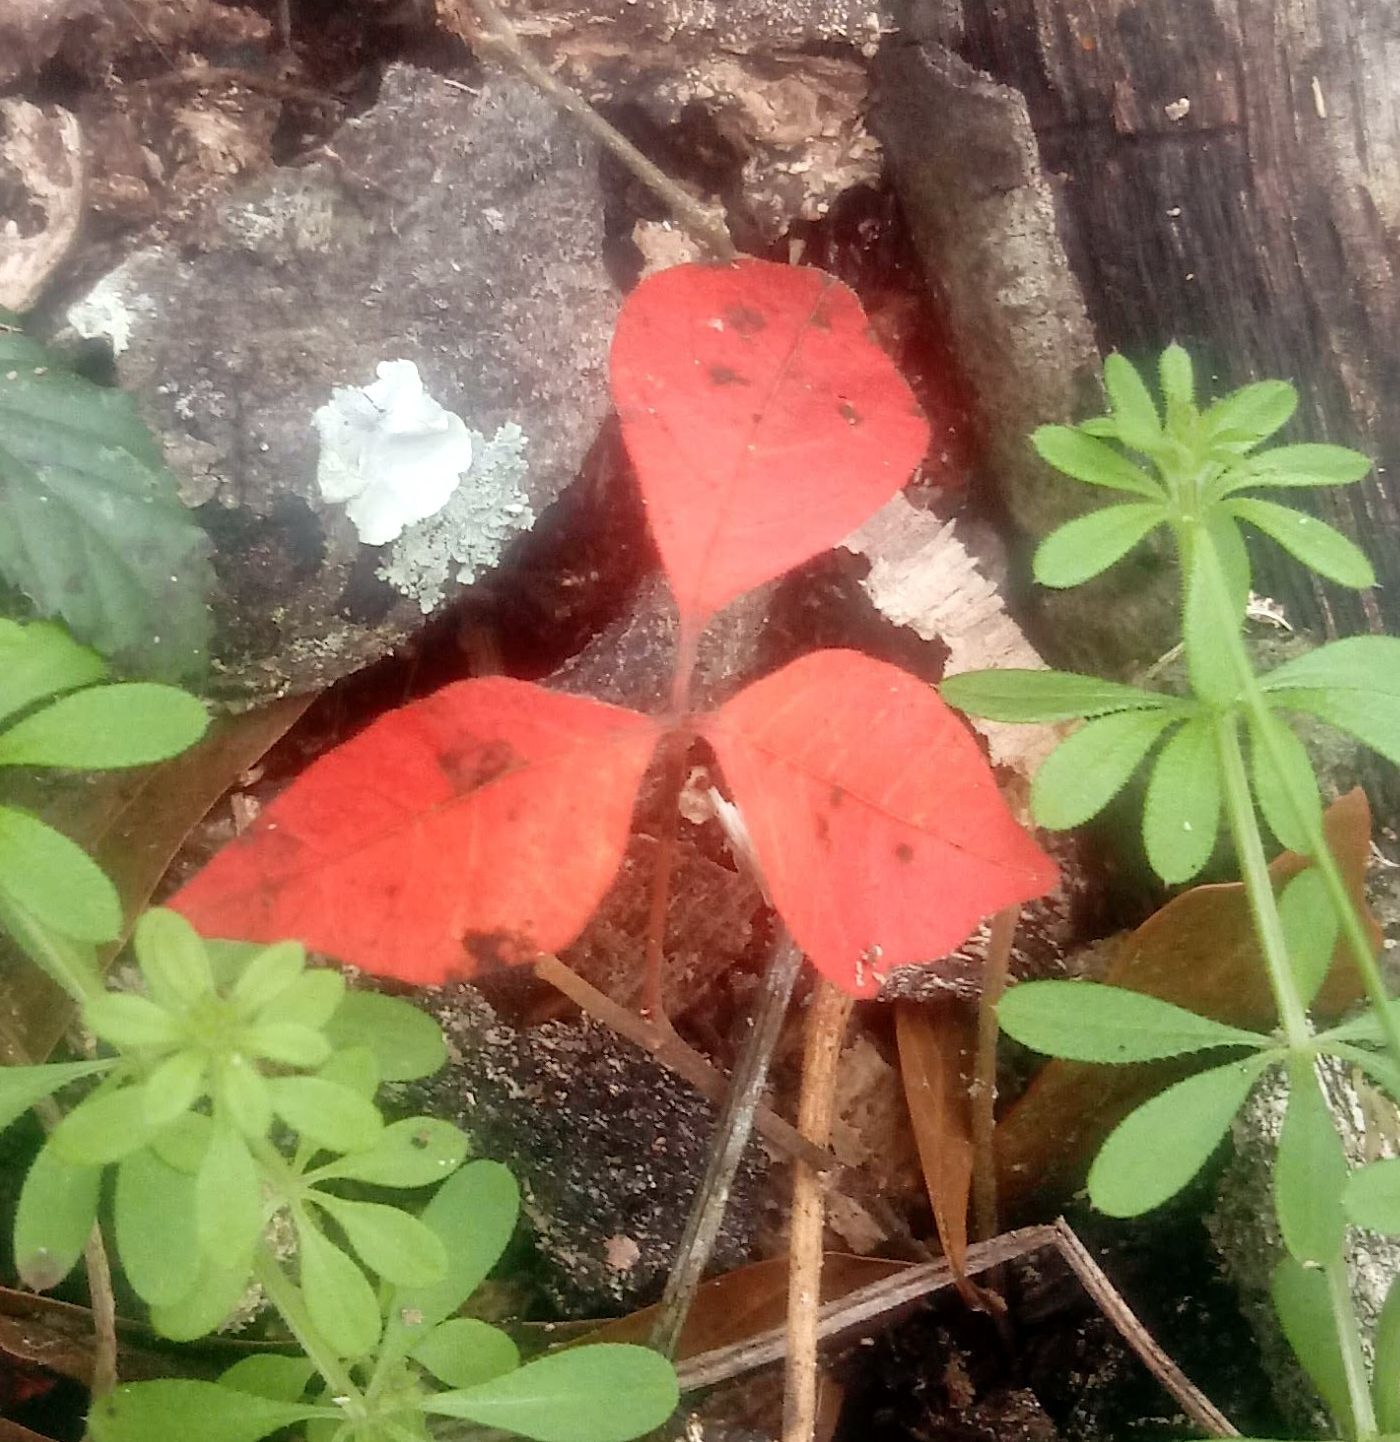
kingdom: Plantae
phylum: Tracheophyta
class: Magnoliopsida
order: Sapindales
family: Anacardiaceae
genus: Toxicodendron
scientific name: Toxicodendron radicans
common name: Poison ivy
